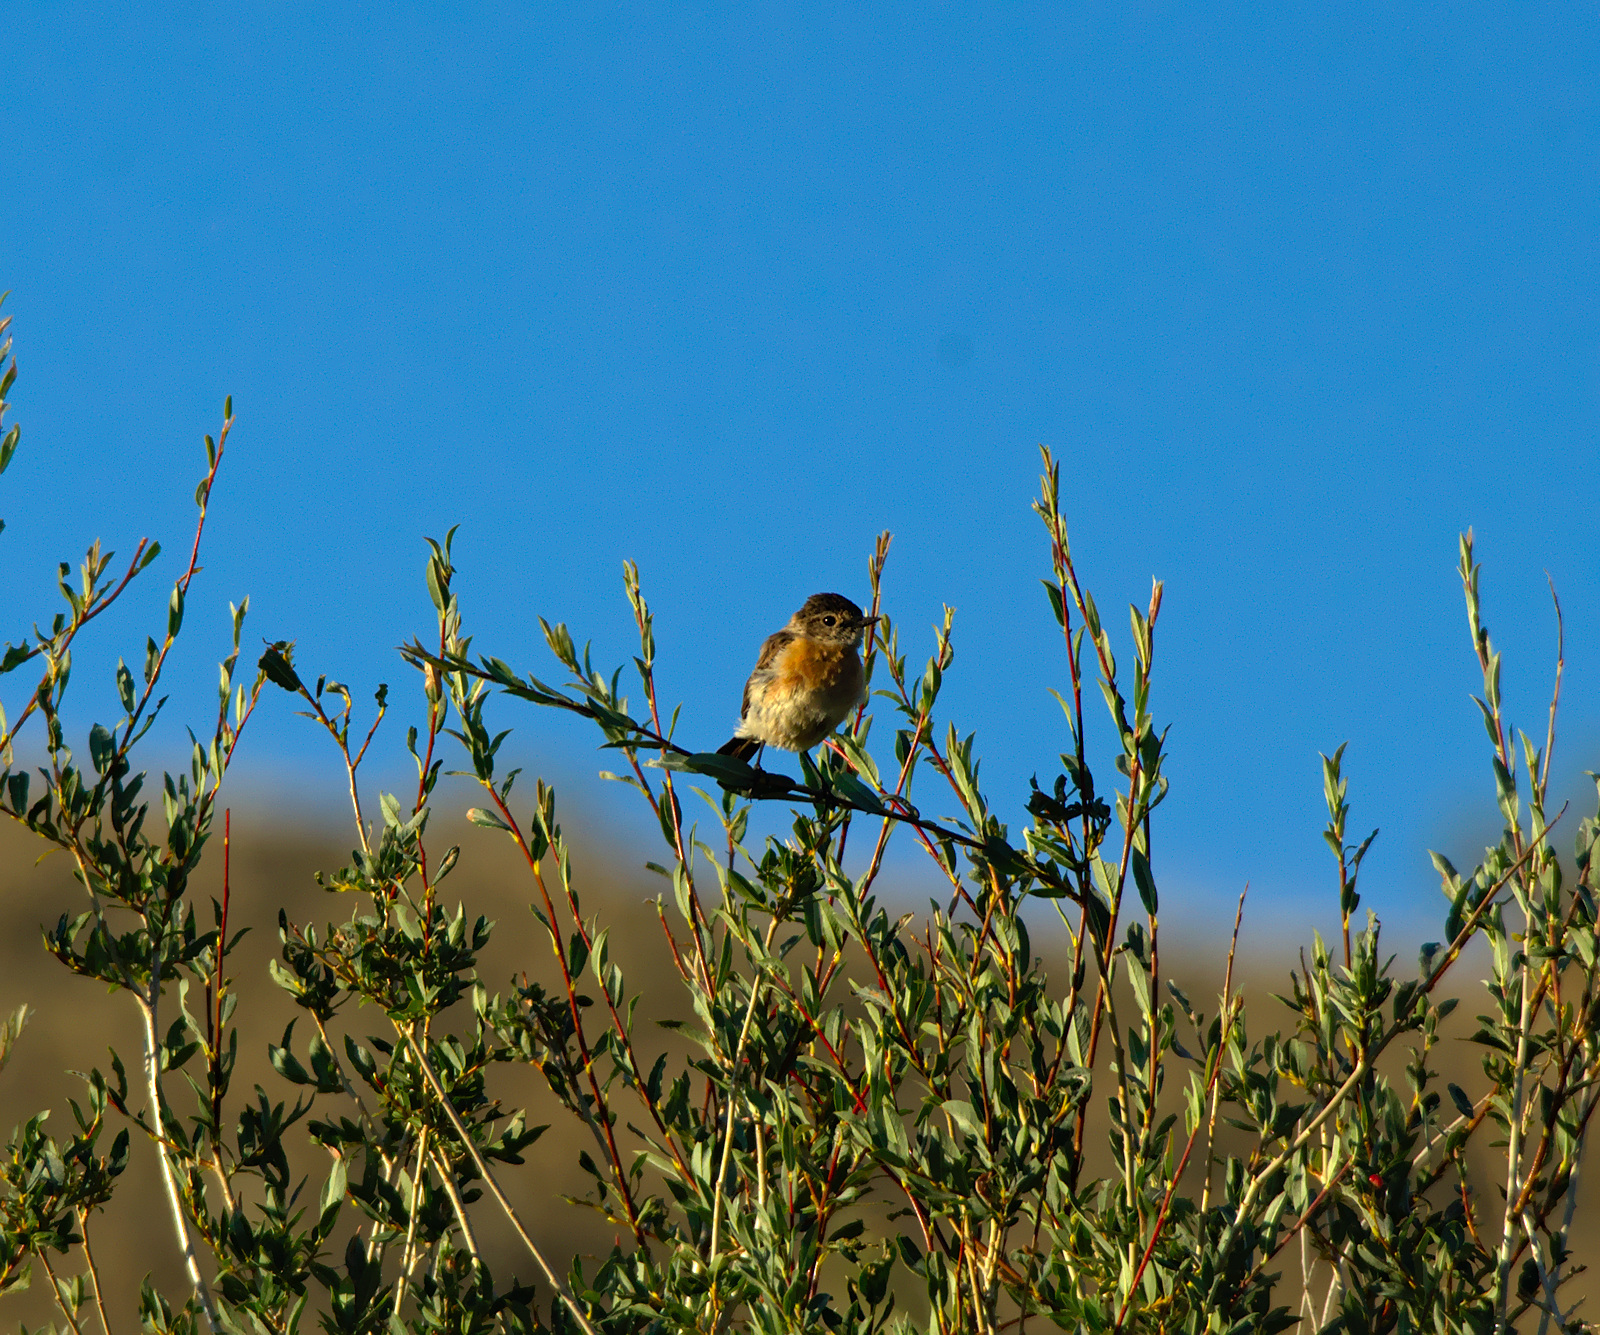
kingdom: Animalia
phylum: Chordata
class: Aves
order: Passeriformes
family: Muscicapidae
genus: Saxicola
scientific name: Saxicola maurus
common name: Siberian stonechat
